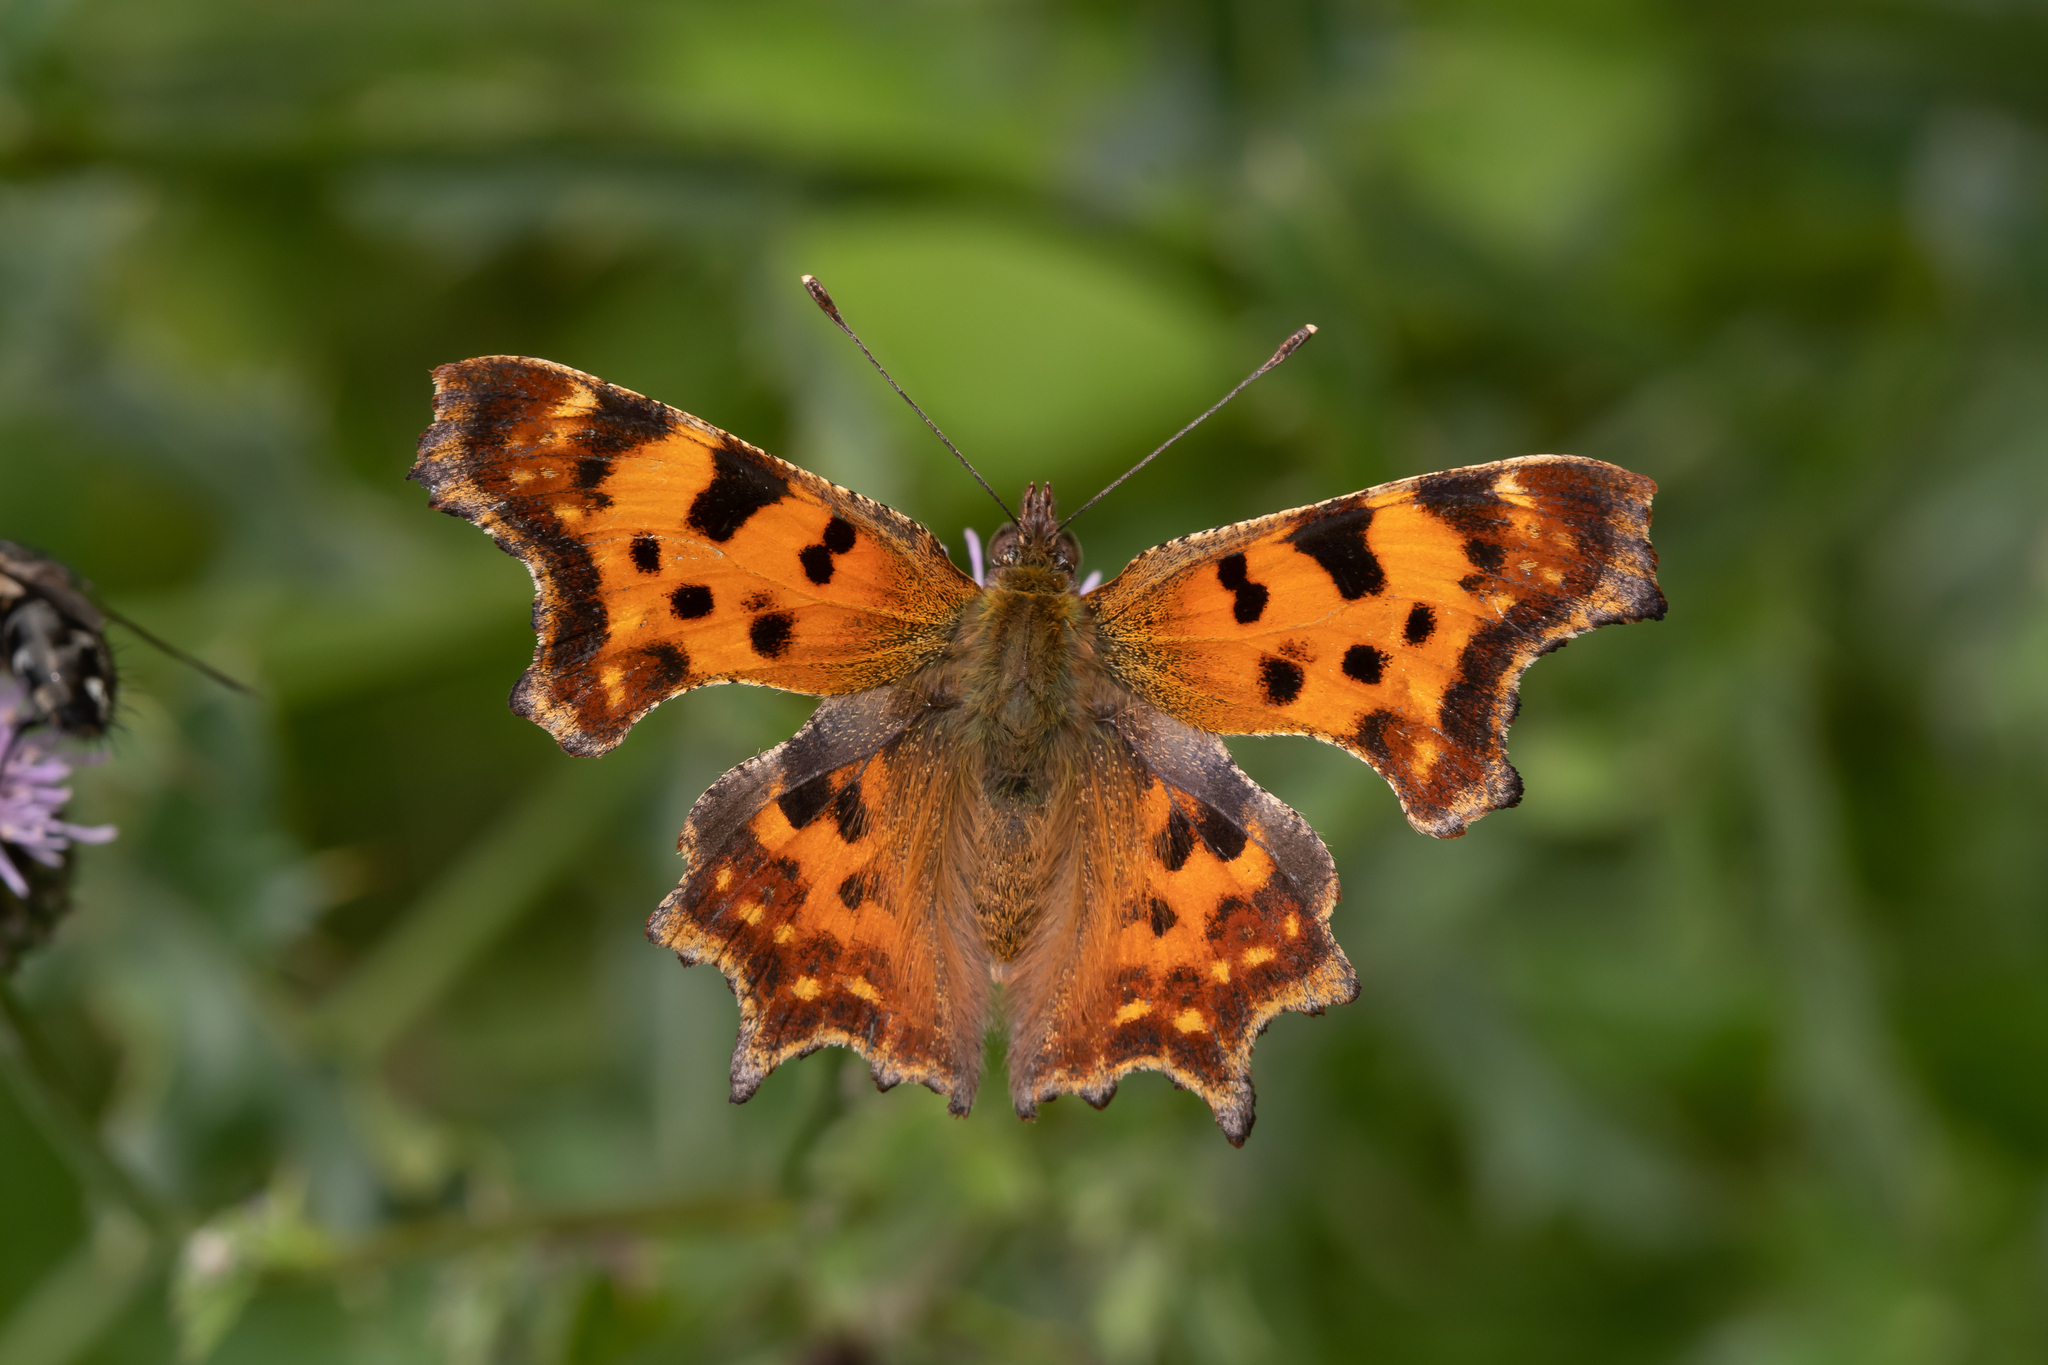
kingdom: Animalia
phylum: Arthropoda
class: Insecta
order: Lepidoptera
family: Nymphalidae
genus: Polygonia
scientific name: Polygonia c-album
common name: Comma
